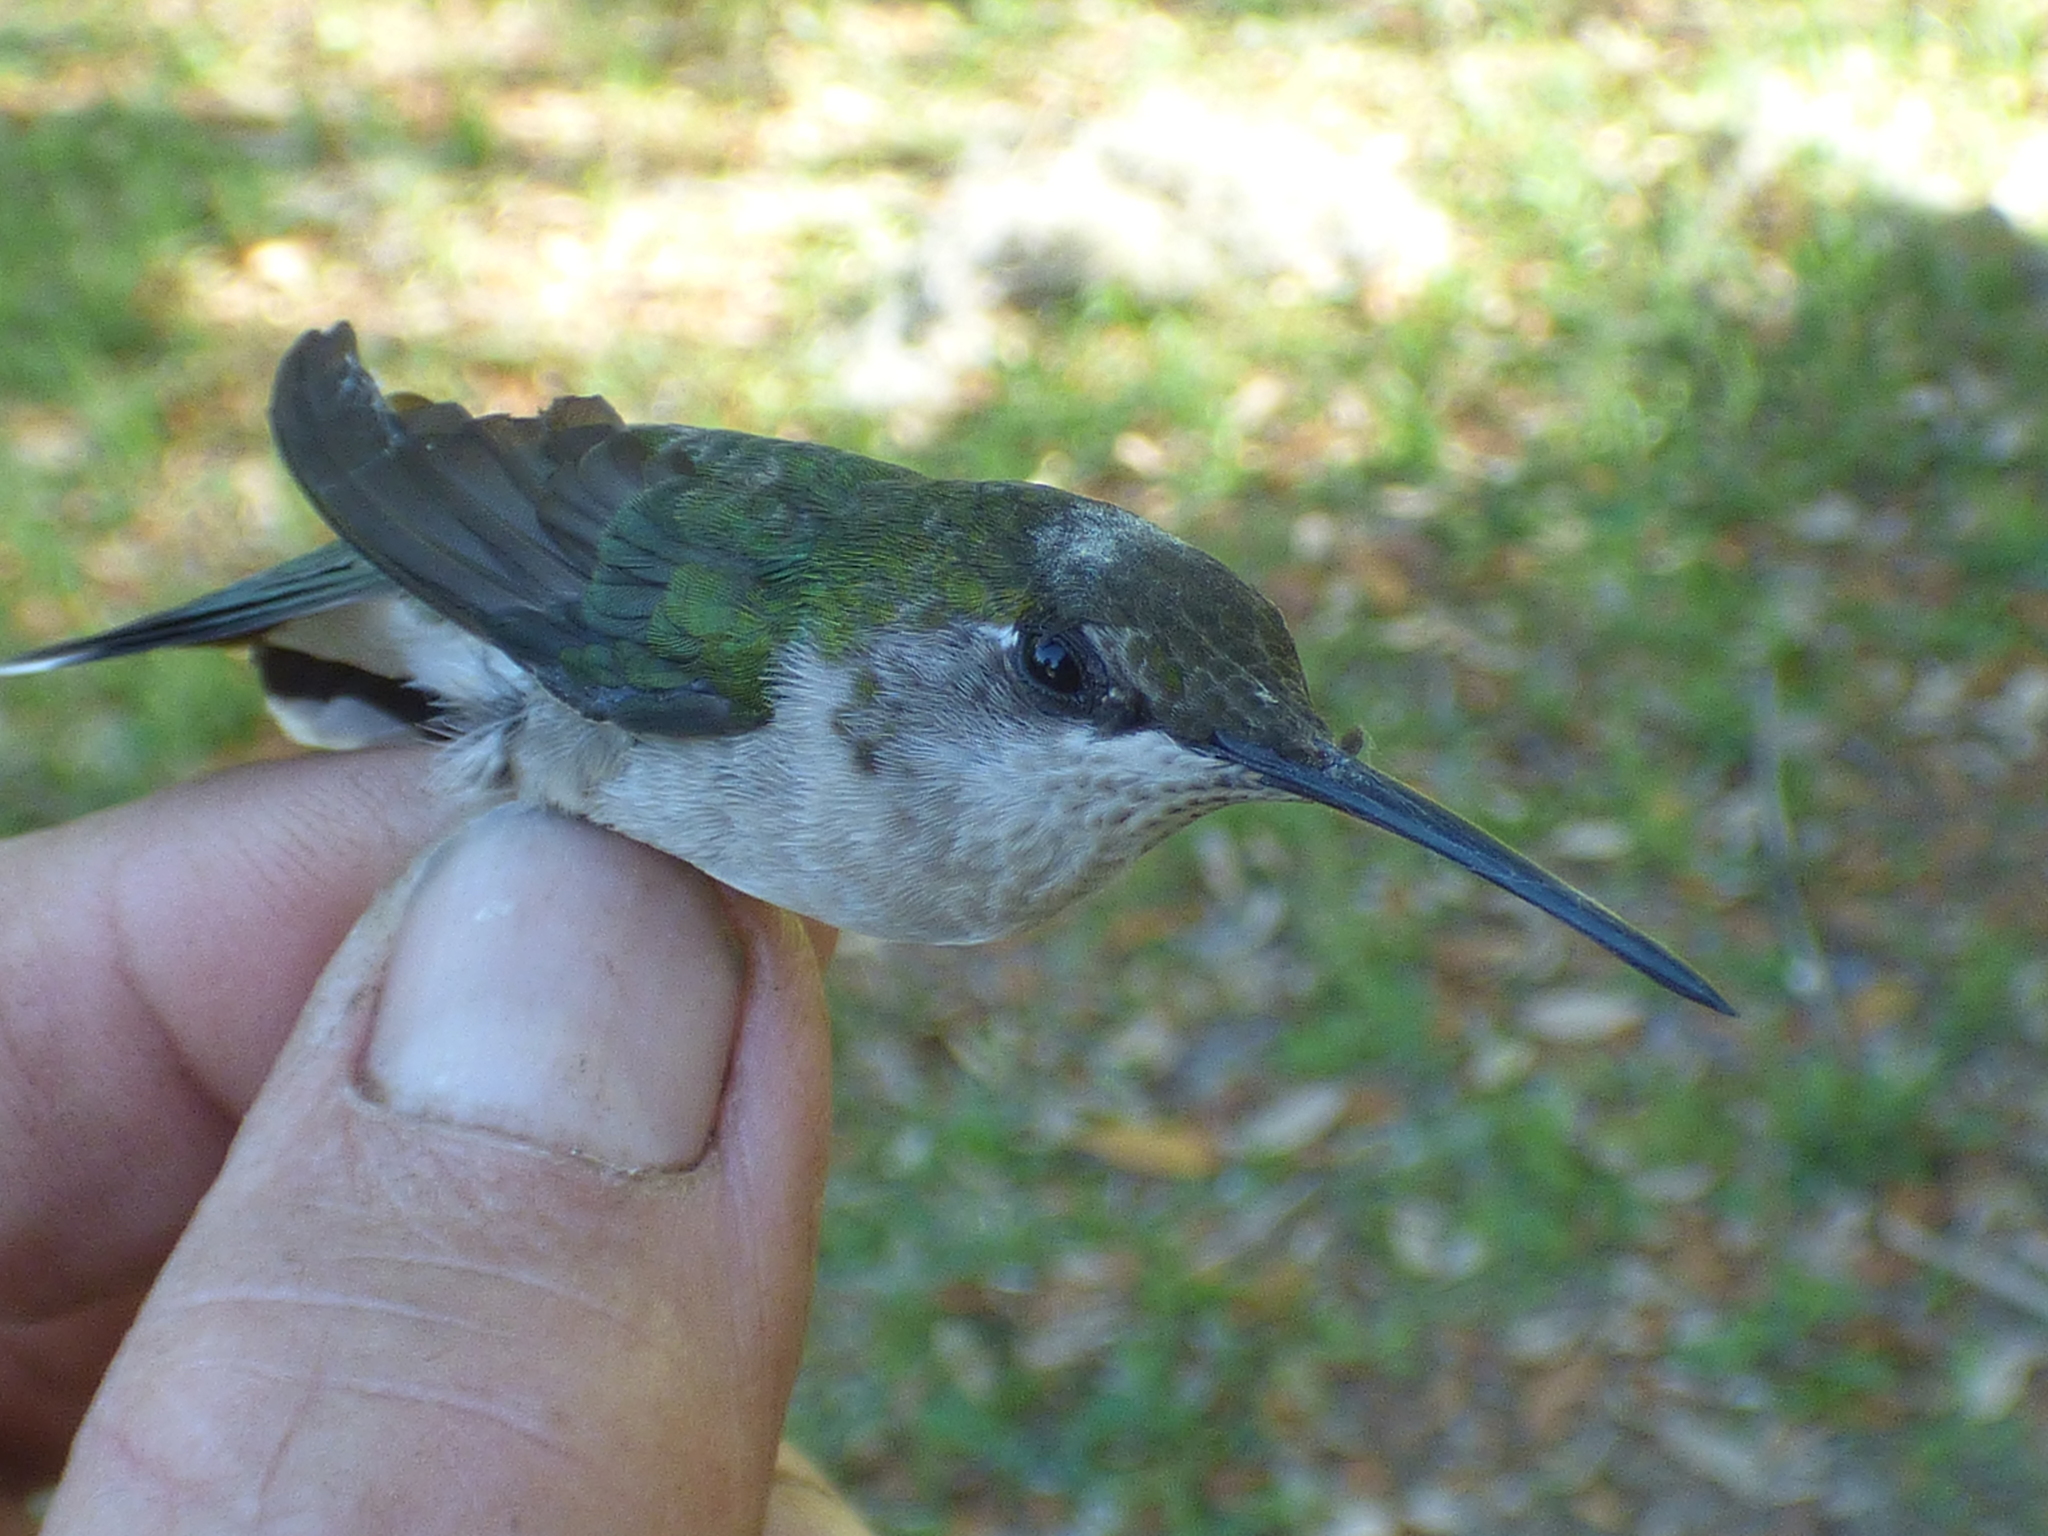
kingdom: Animalia
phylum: Chordata
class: Aves
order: Apodiformes
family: Trochilidae
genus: Archilochus
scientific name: Archilochus colubris
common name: Ruby-throated hummingbird
